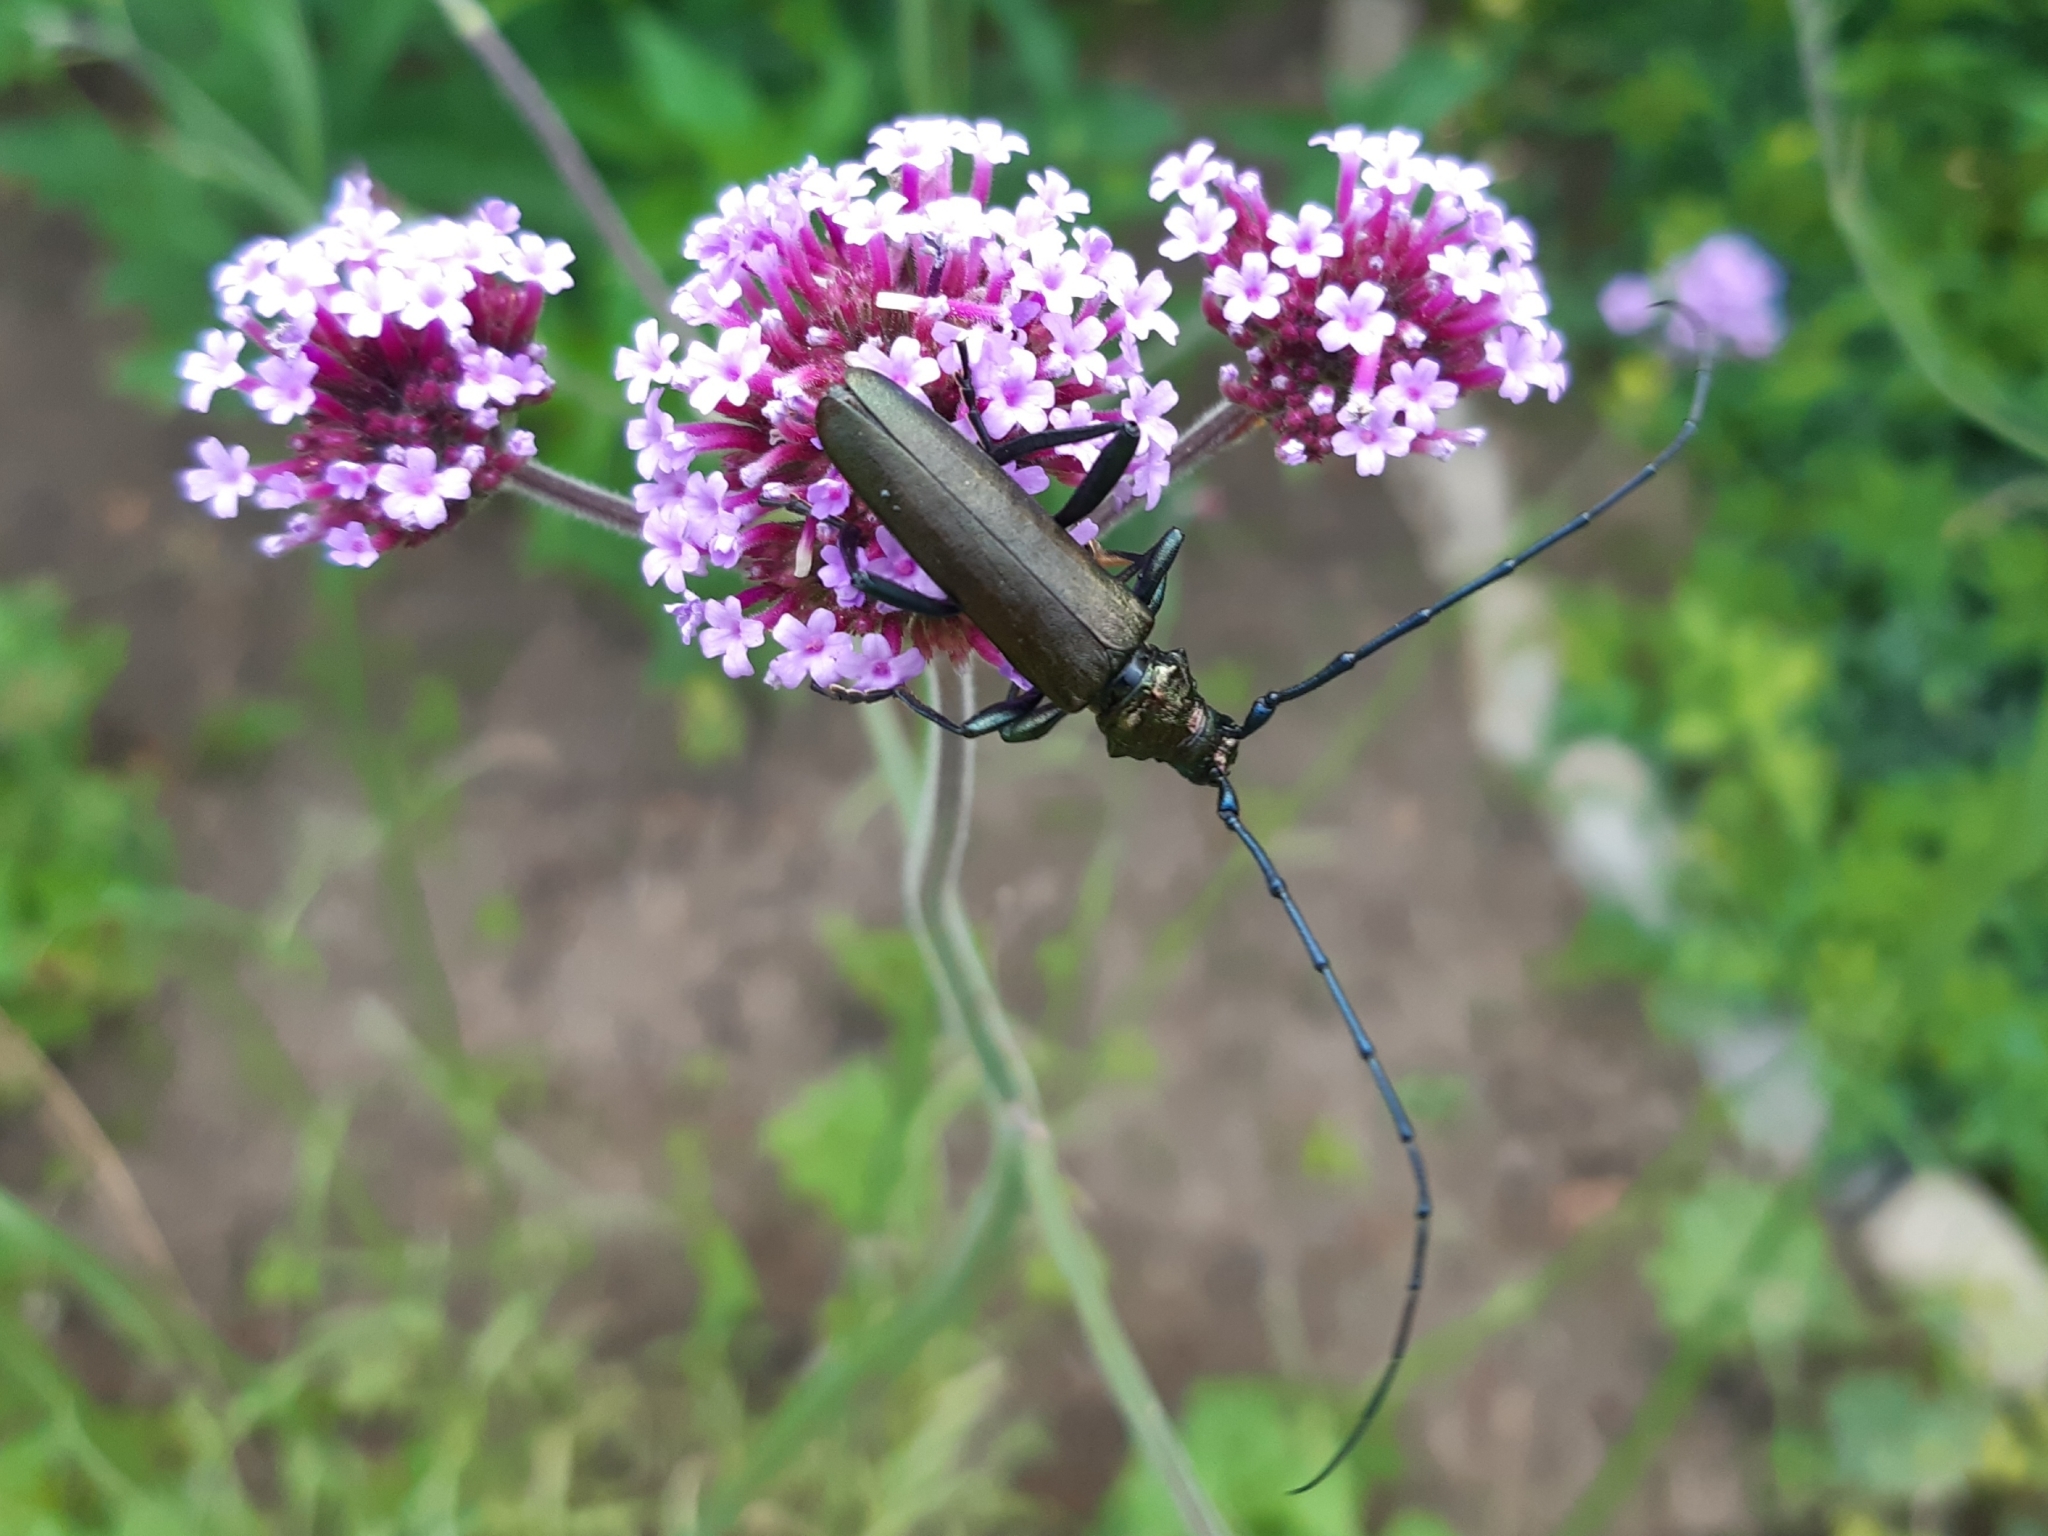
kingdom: Animalia
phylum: Arthropoda
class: Insecta
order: Coleoptera
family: Cerambycidae
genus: Aromia
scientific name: Aromia moschata
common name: Musk beetle
